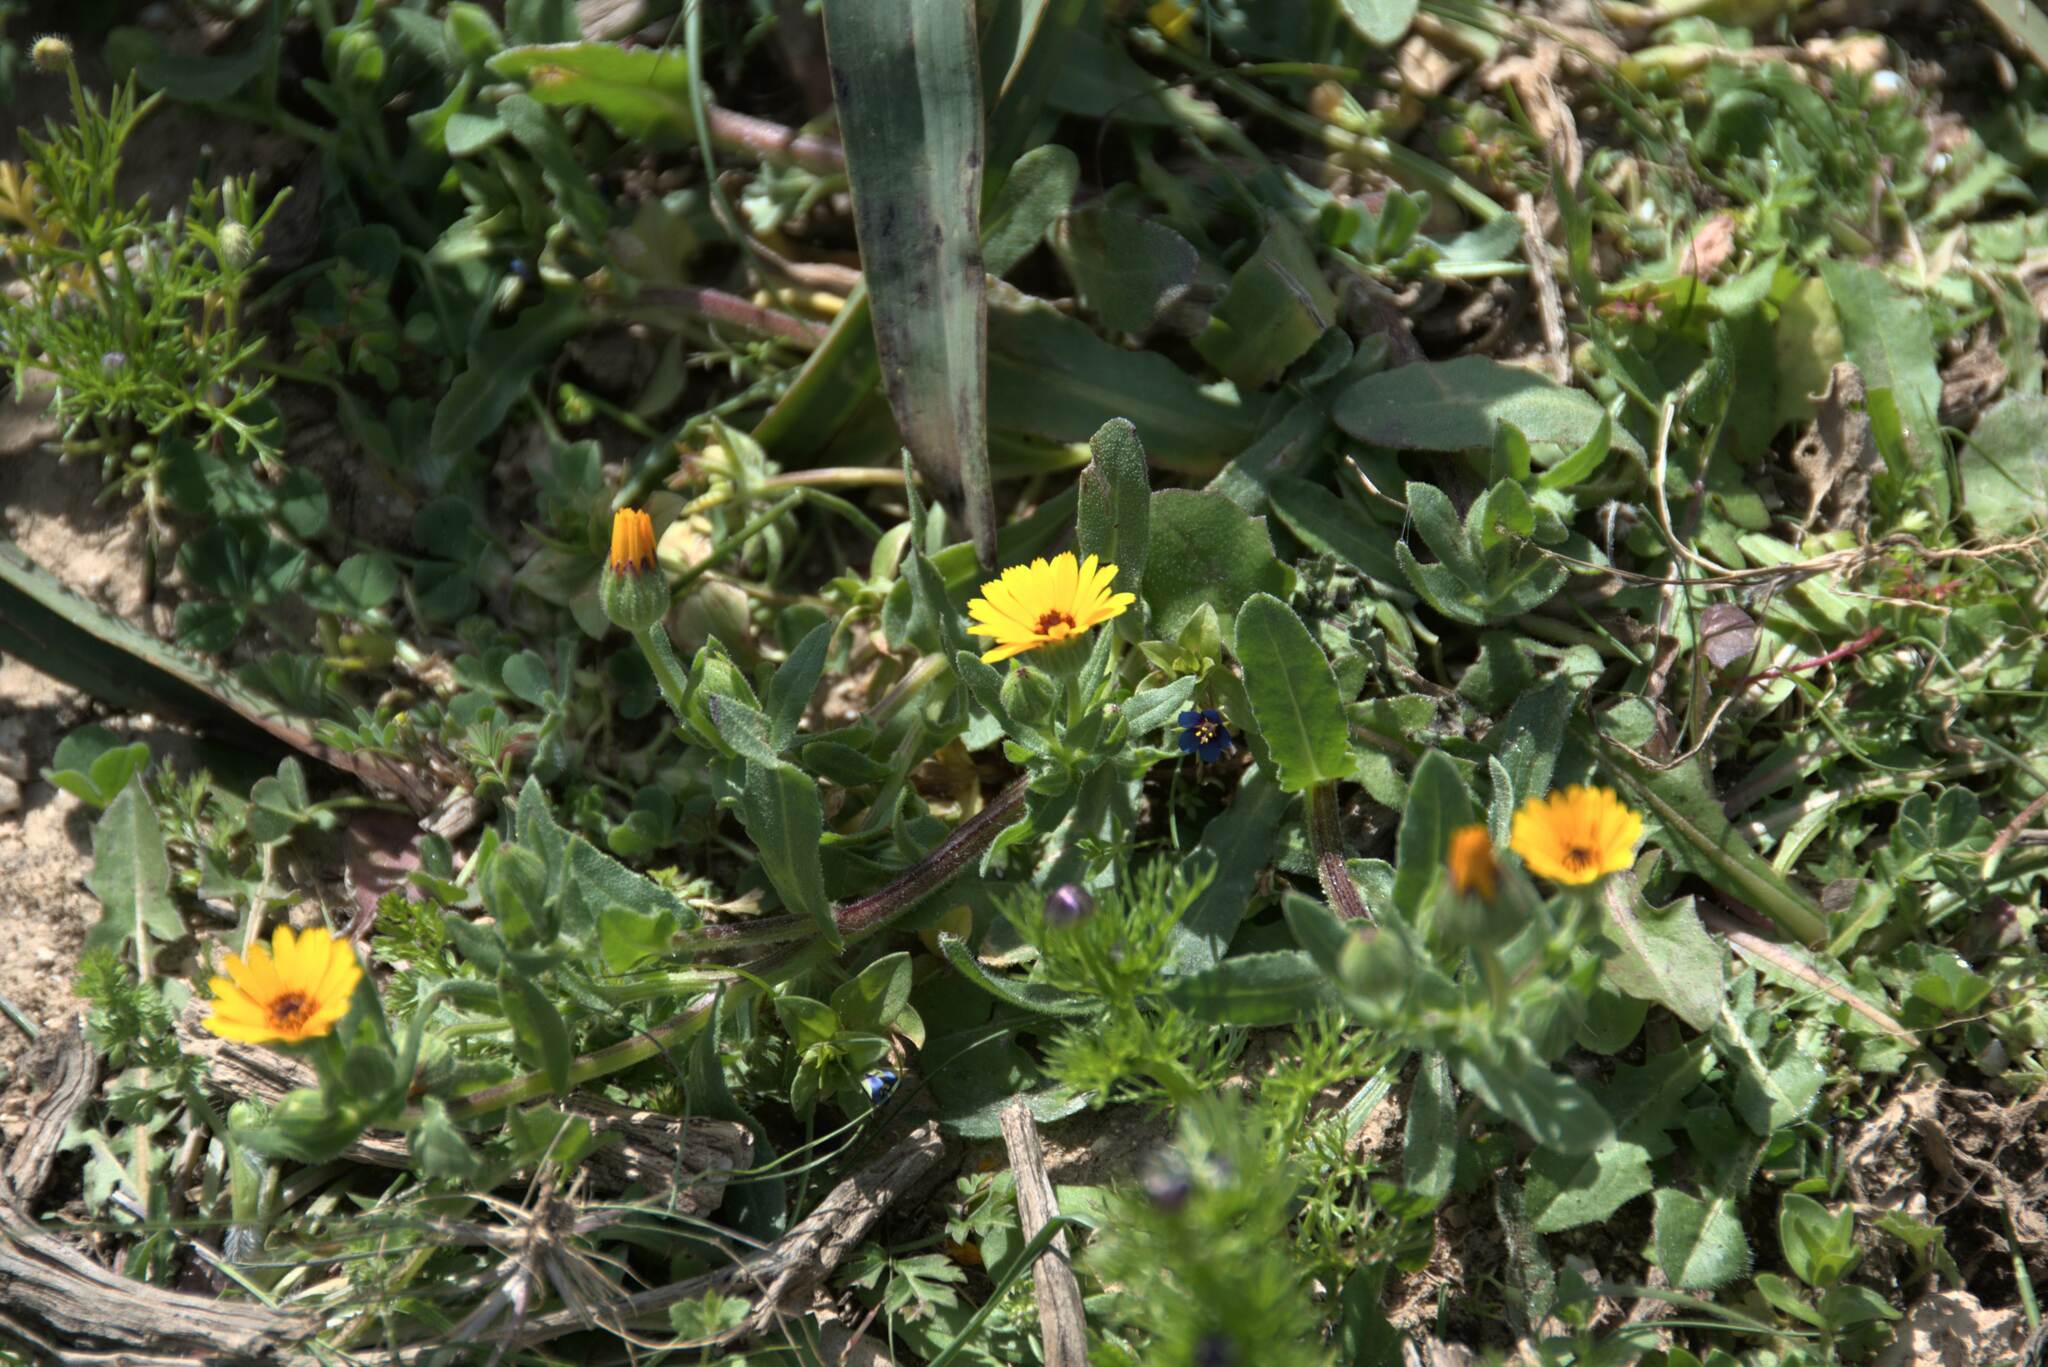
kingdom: Plantae
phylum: Tracheophyta
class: Magnoliopsida
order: Asterales
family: Asteraceae
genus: Calendula
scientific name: Calendula arvensis
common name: Field marigold
